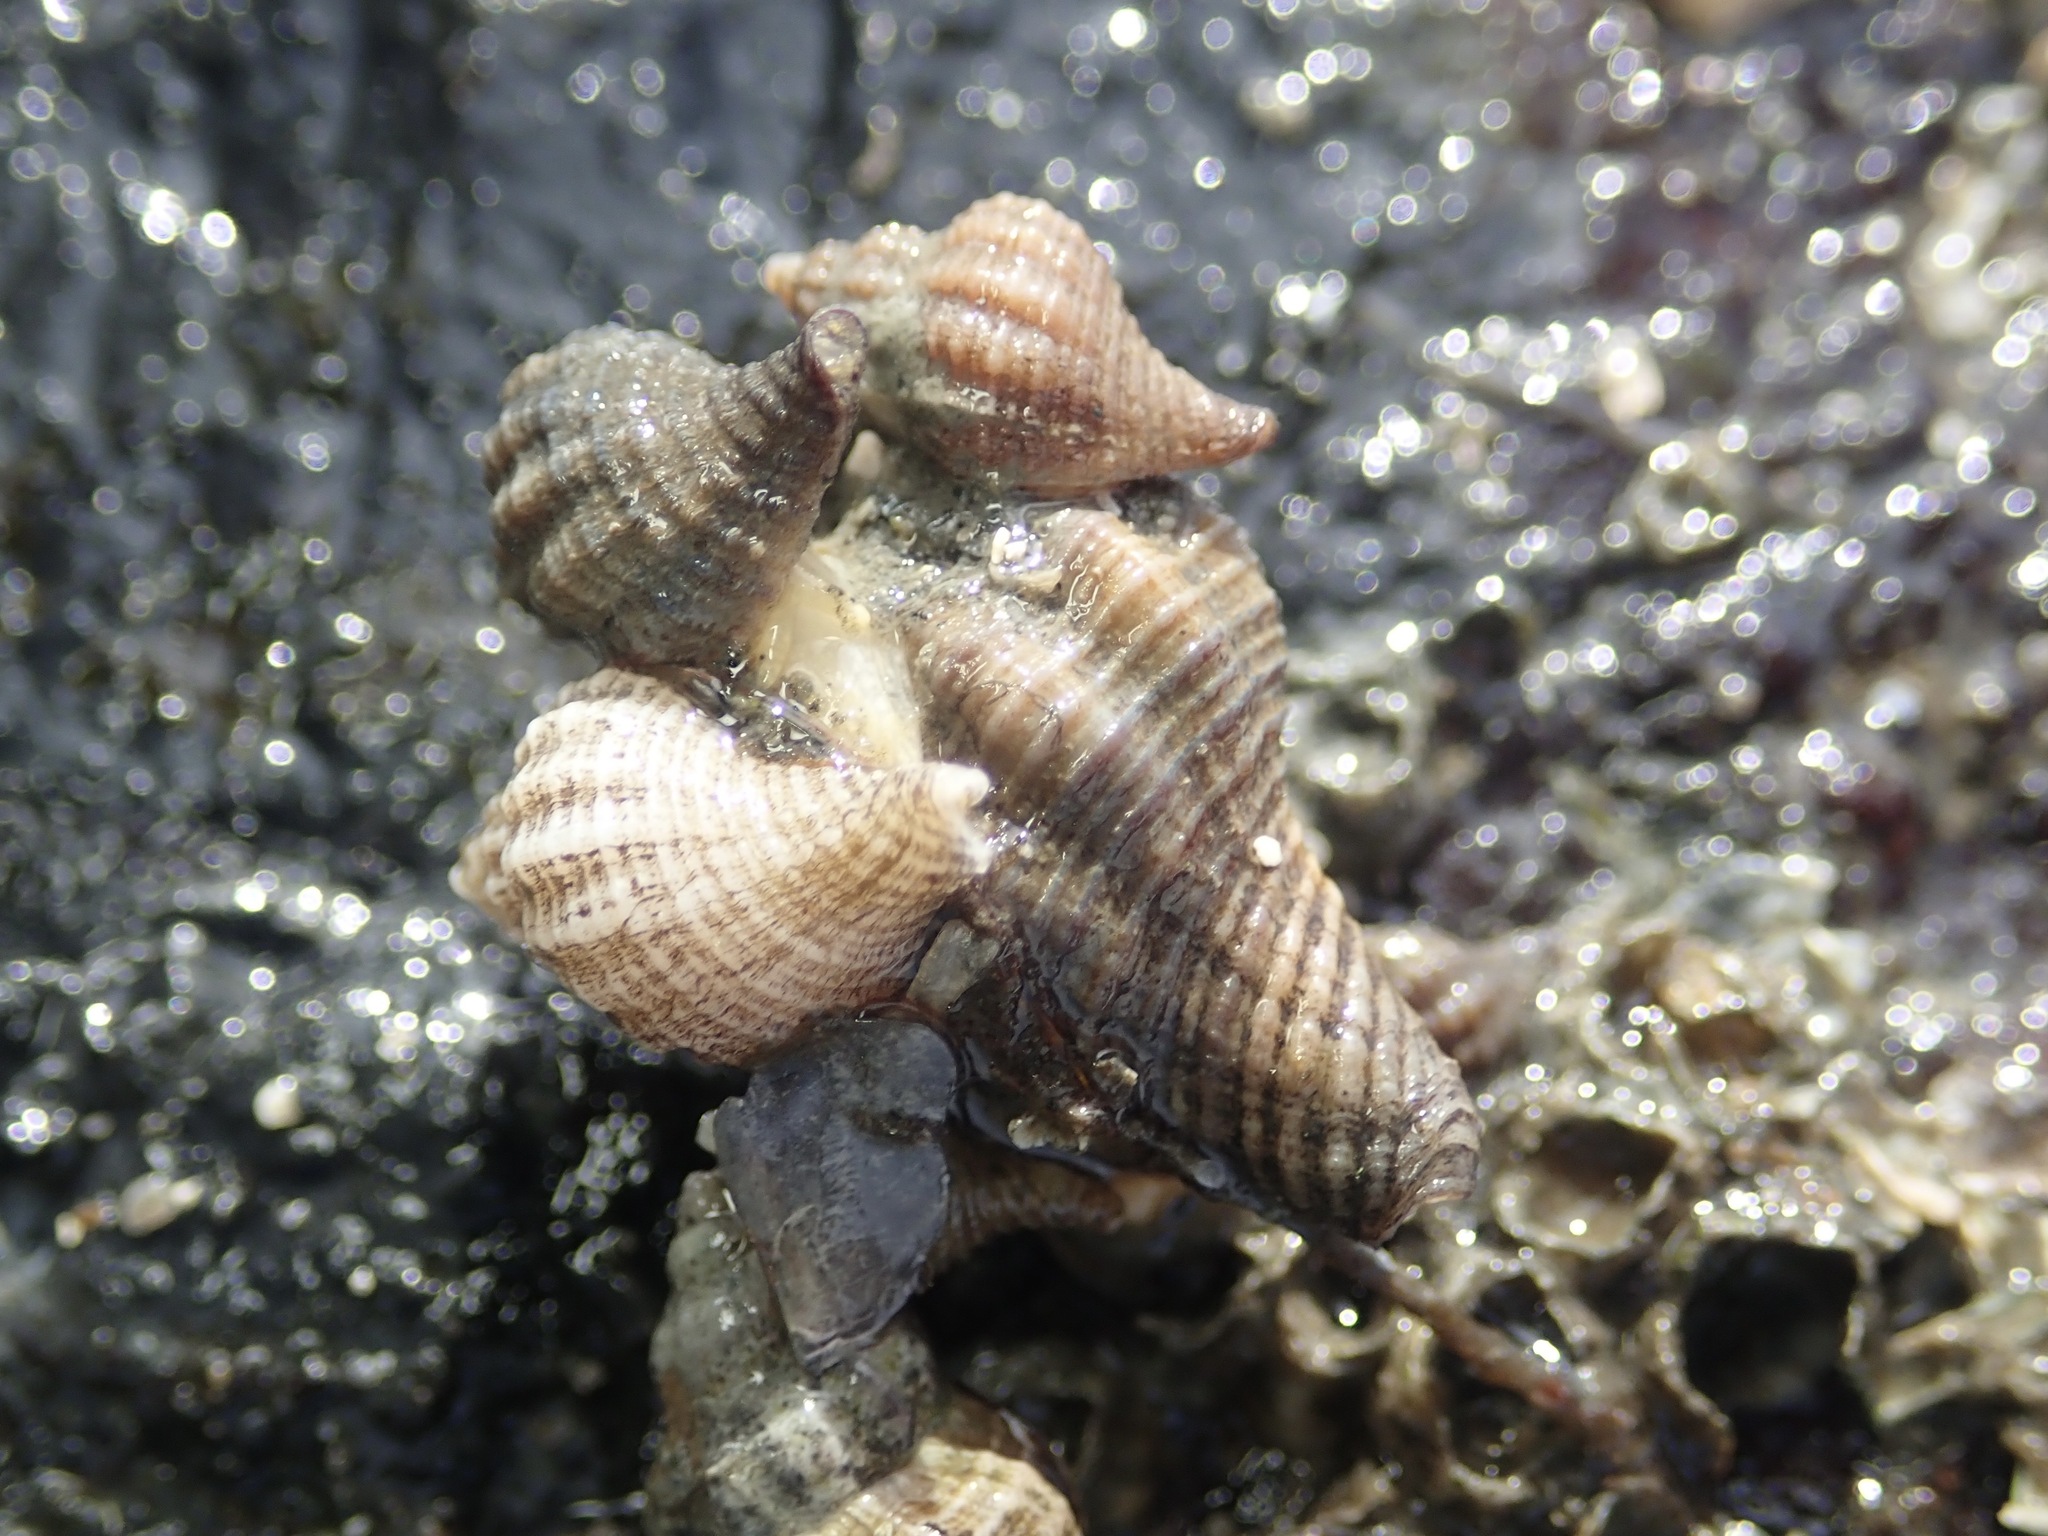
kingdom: Animalia
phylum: Mollusca
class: Gastropoda
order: Neogastropoda
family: Muricidae
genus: Urosalpinx
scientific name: Urosalpinx cinerea
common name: American sting winkle
